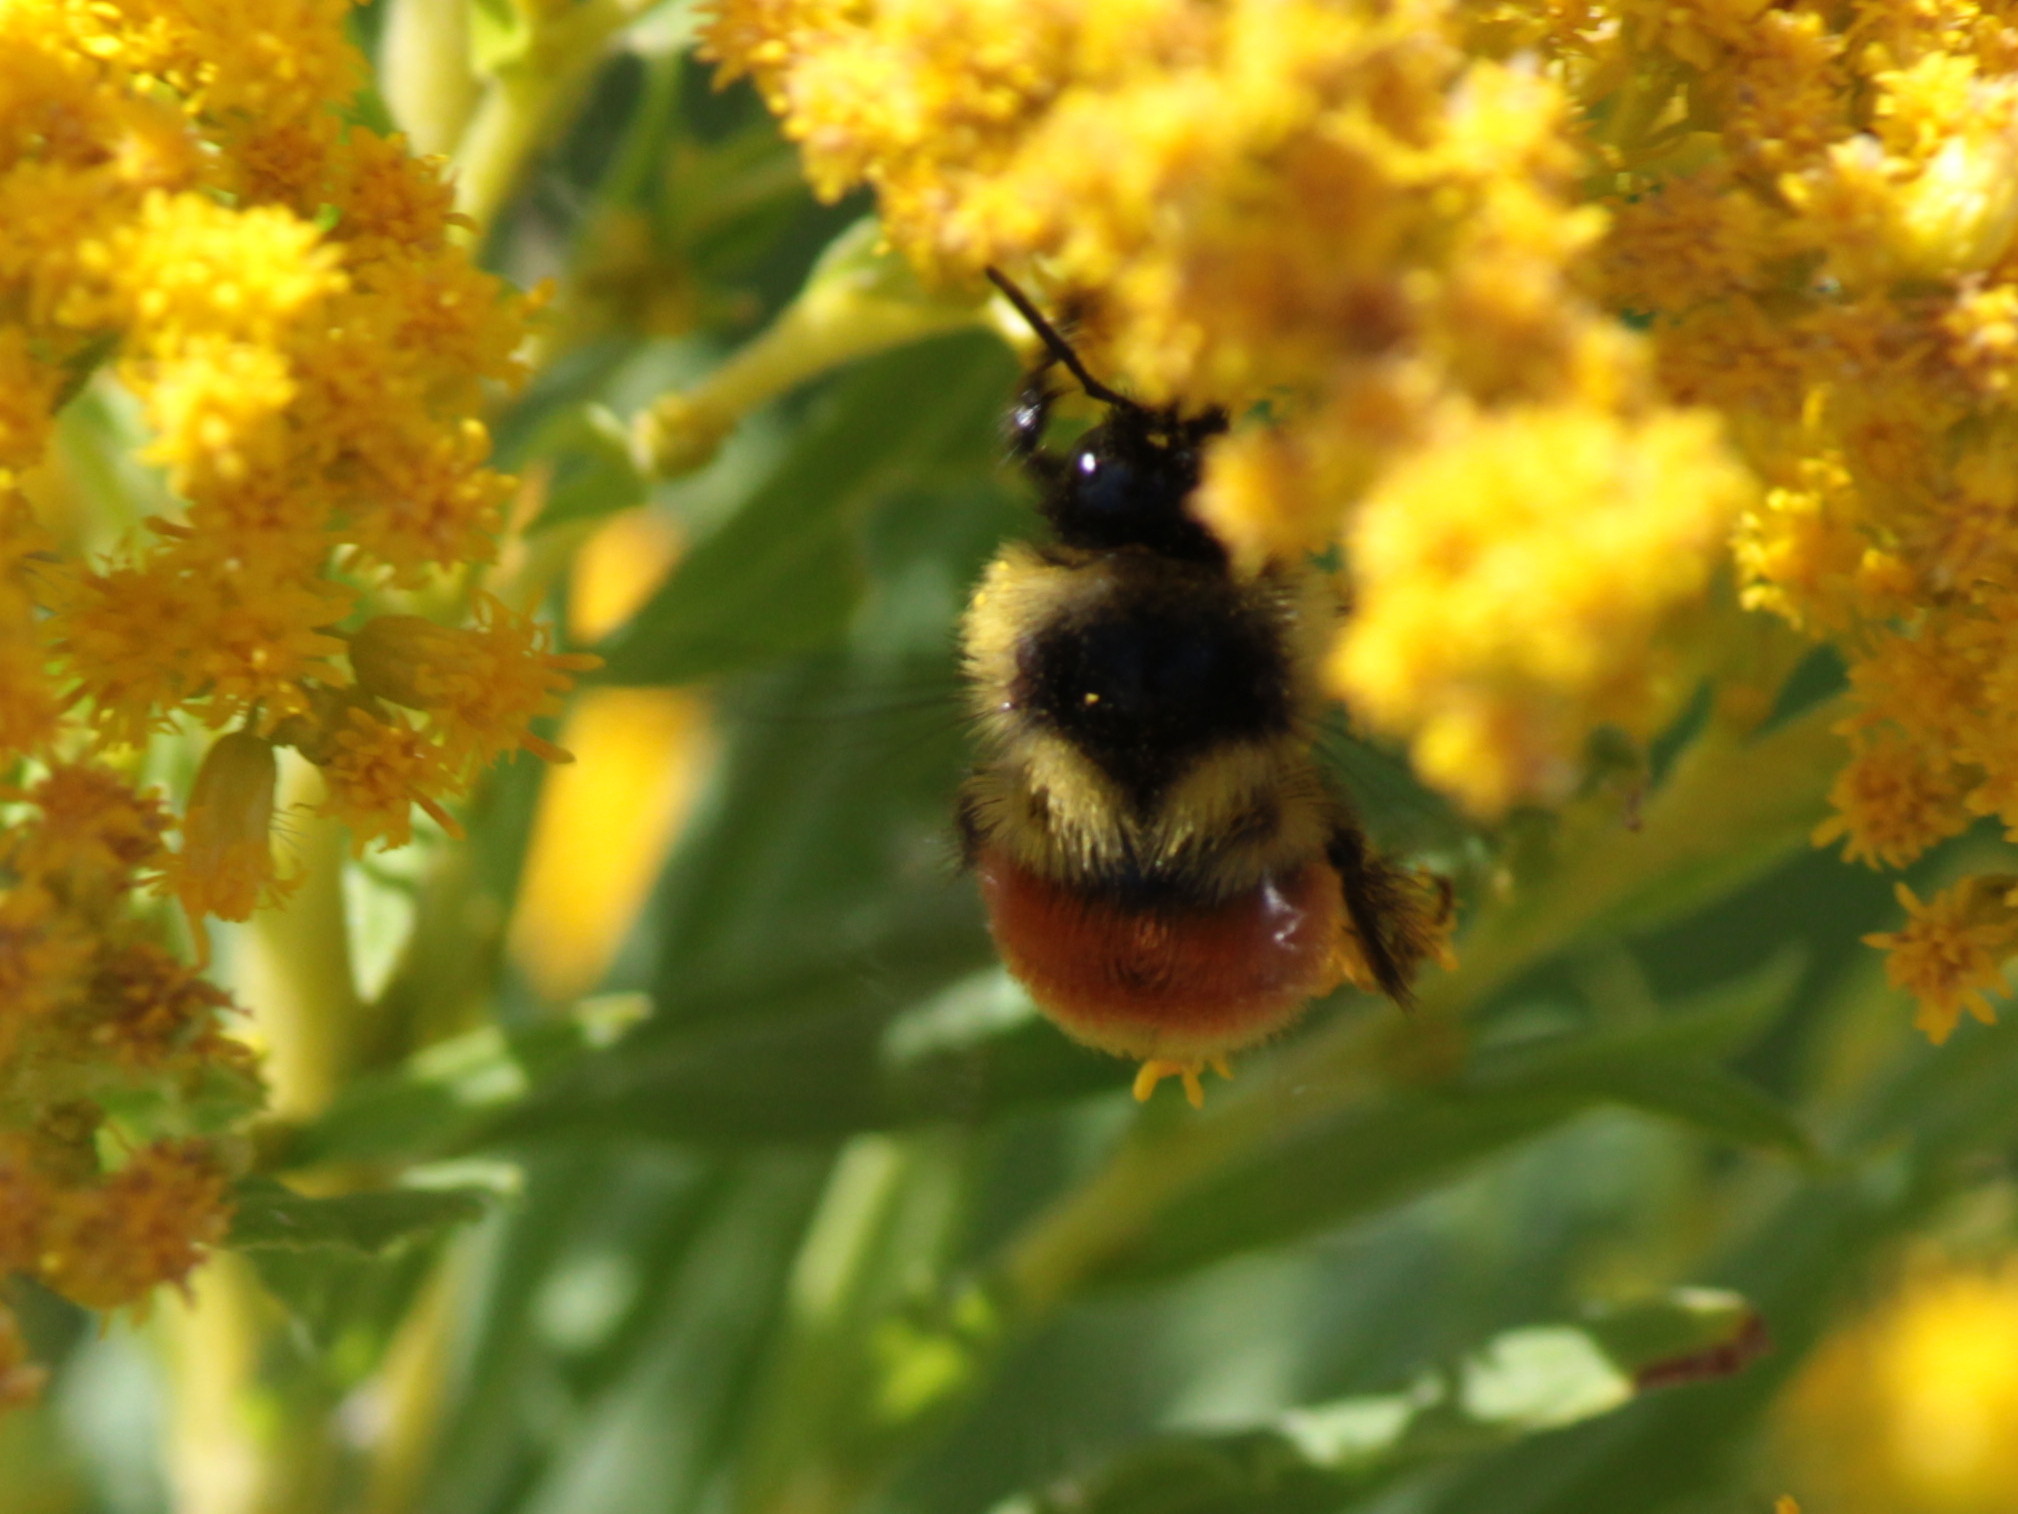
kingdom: Animalia
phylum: Arthropoda
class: Insecta
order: Hymenoptera
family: Apidae
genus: Bombus
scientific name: Bombus ternarius
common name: Tri-colored bumble bee
